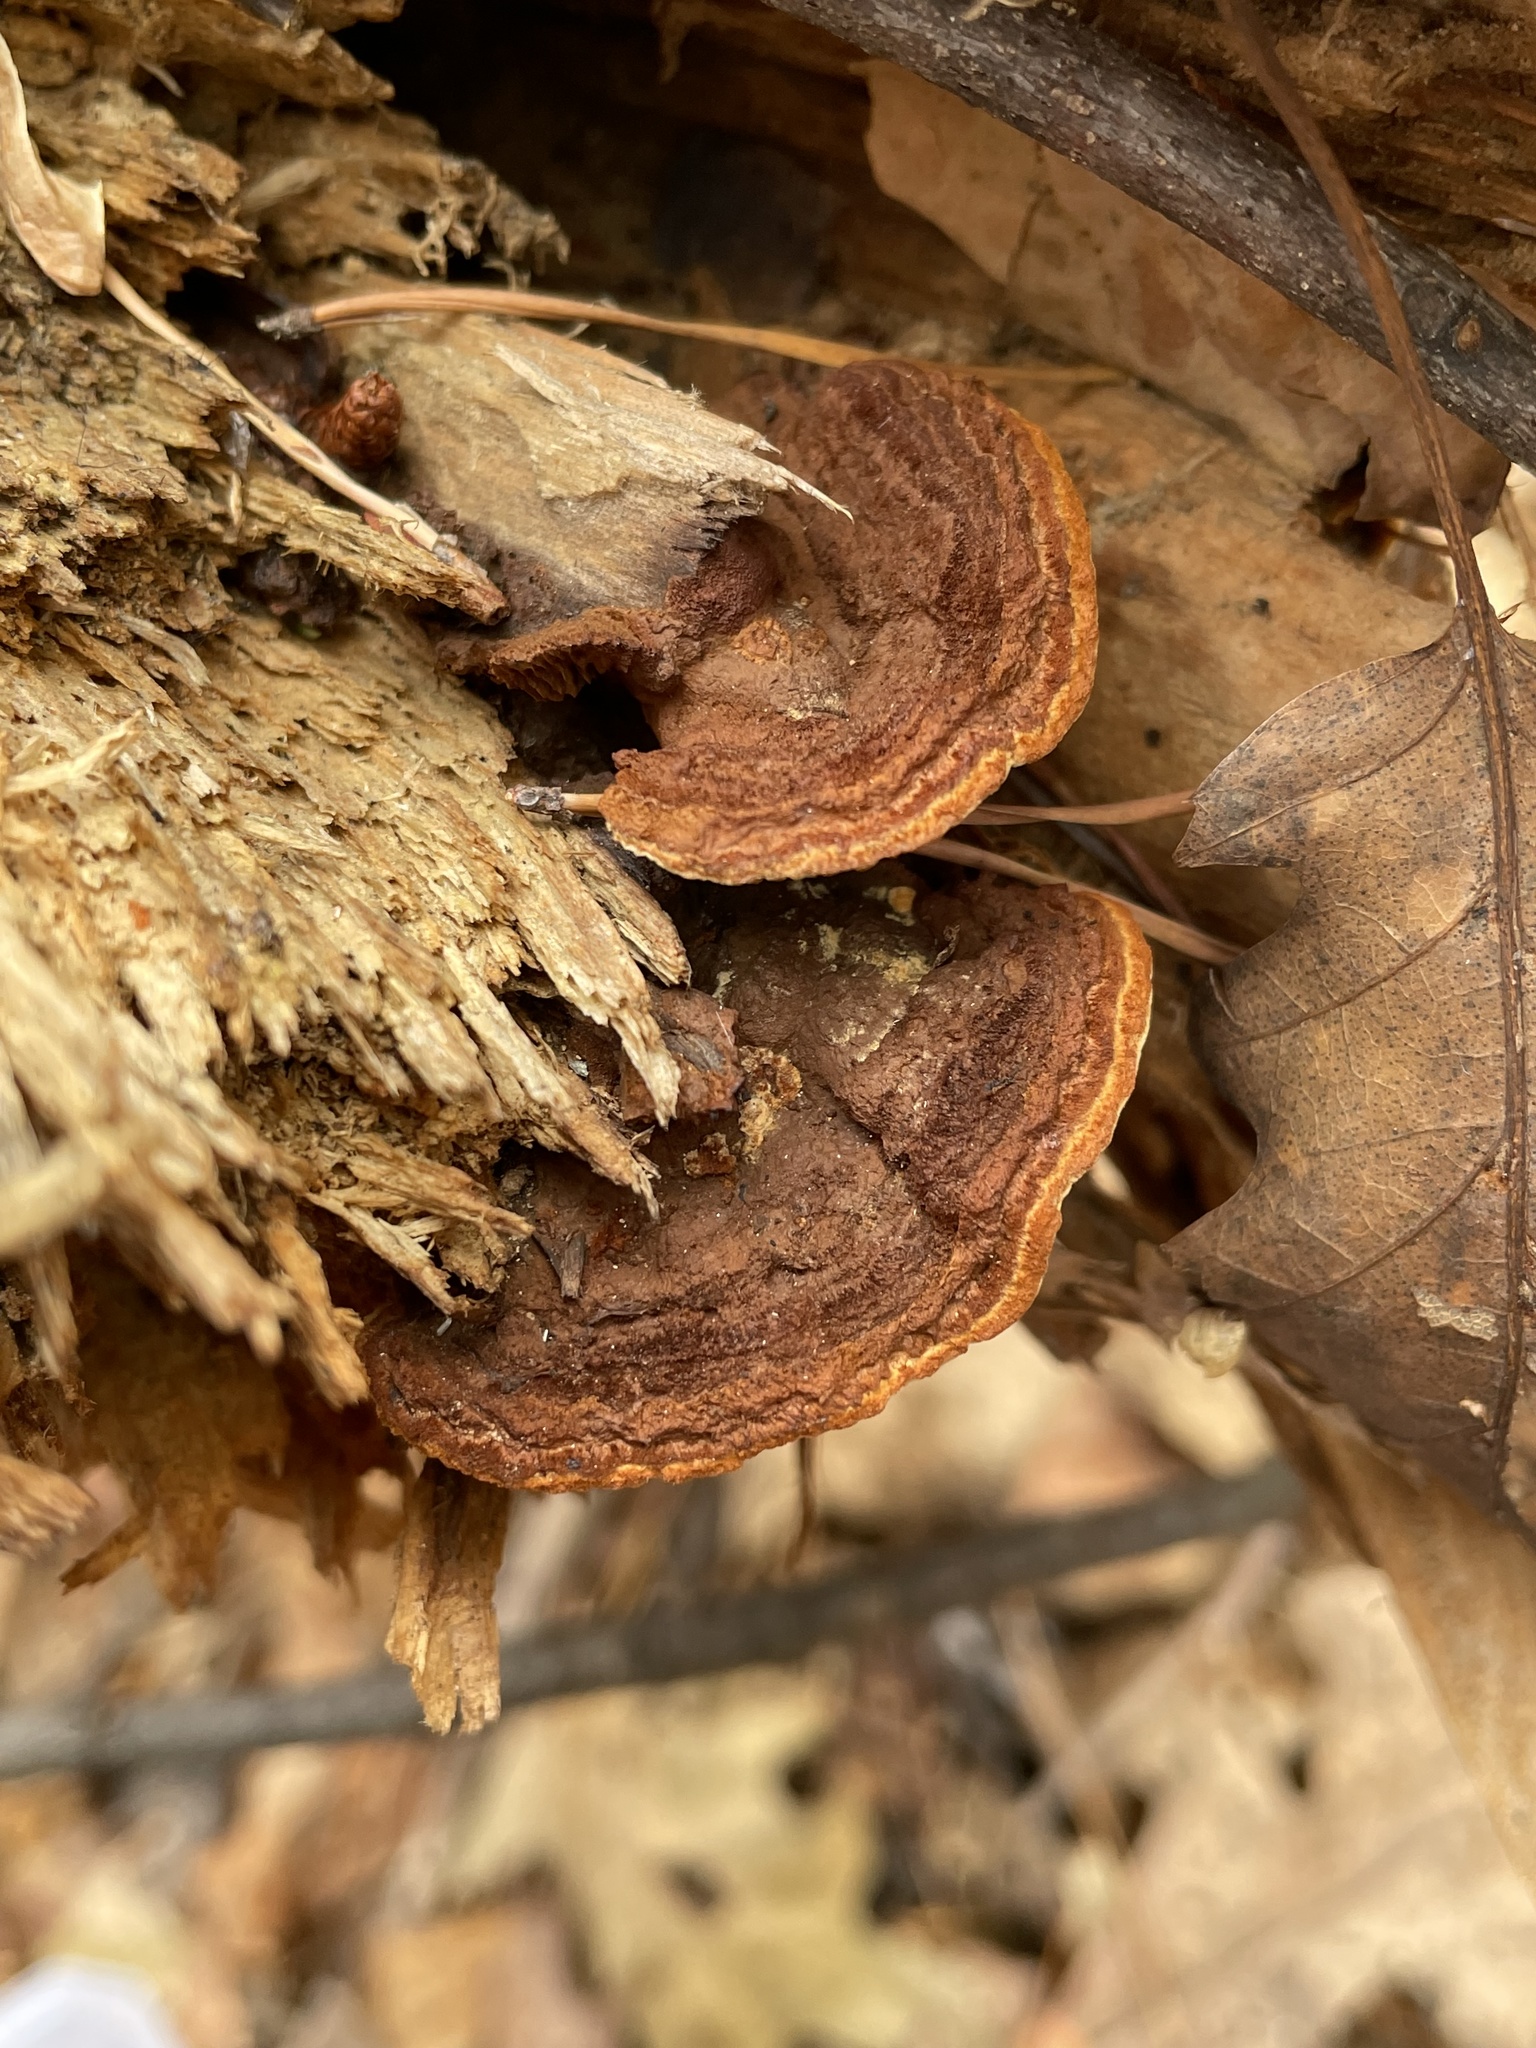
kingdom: Fungi
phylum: Basidiomycota
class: Agaricomycetes
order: Gloeophyllales
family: Gloeophyllaceae
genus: Gloeophyllum
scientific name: Gloeophyllum sepiarium
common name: Conifer mazegill
